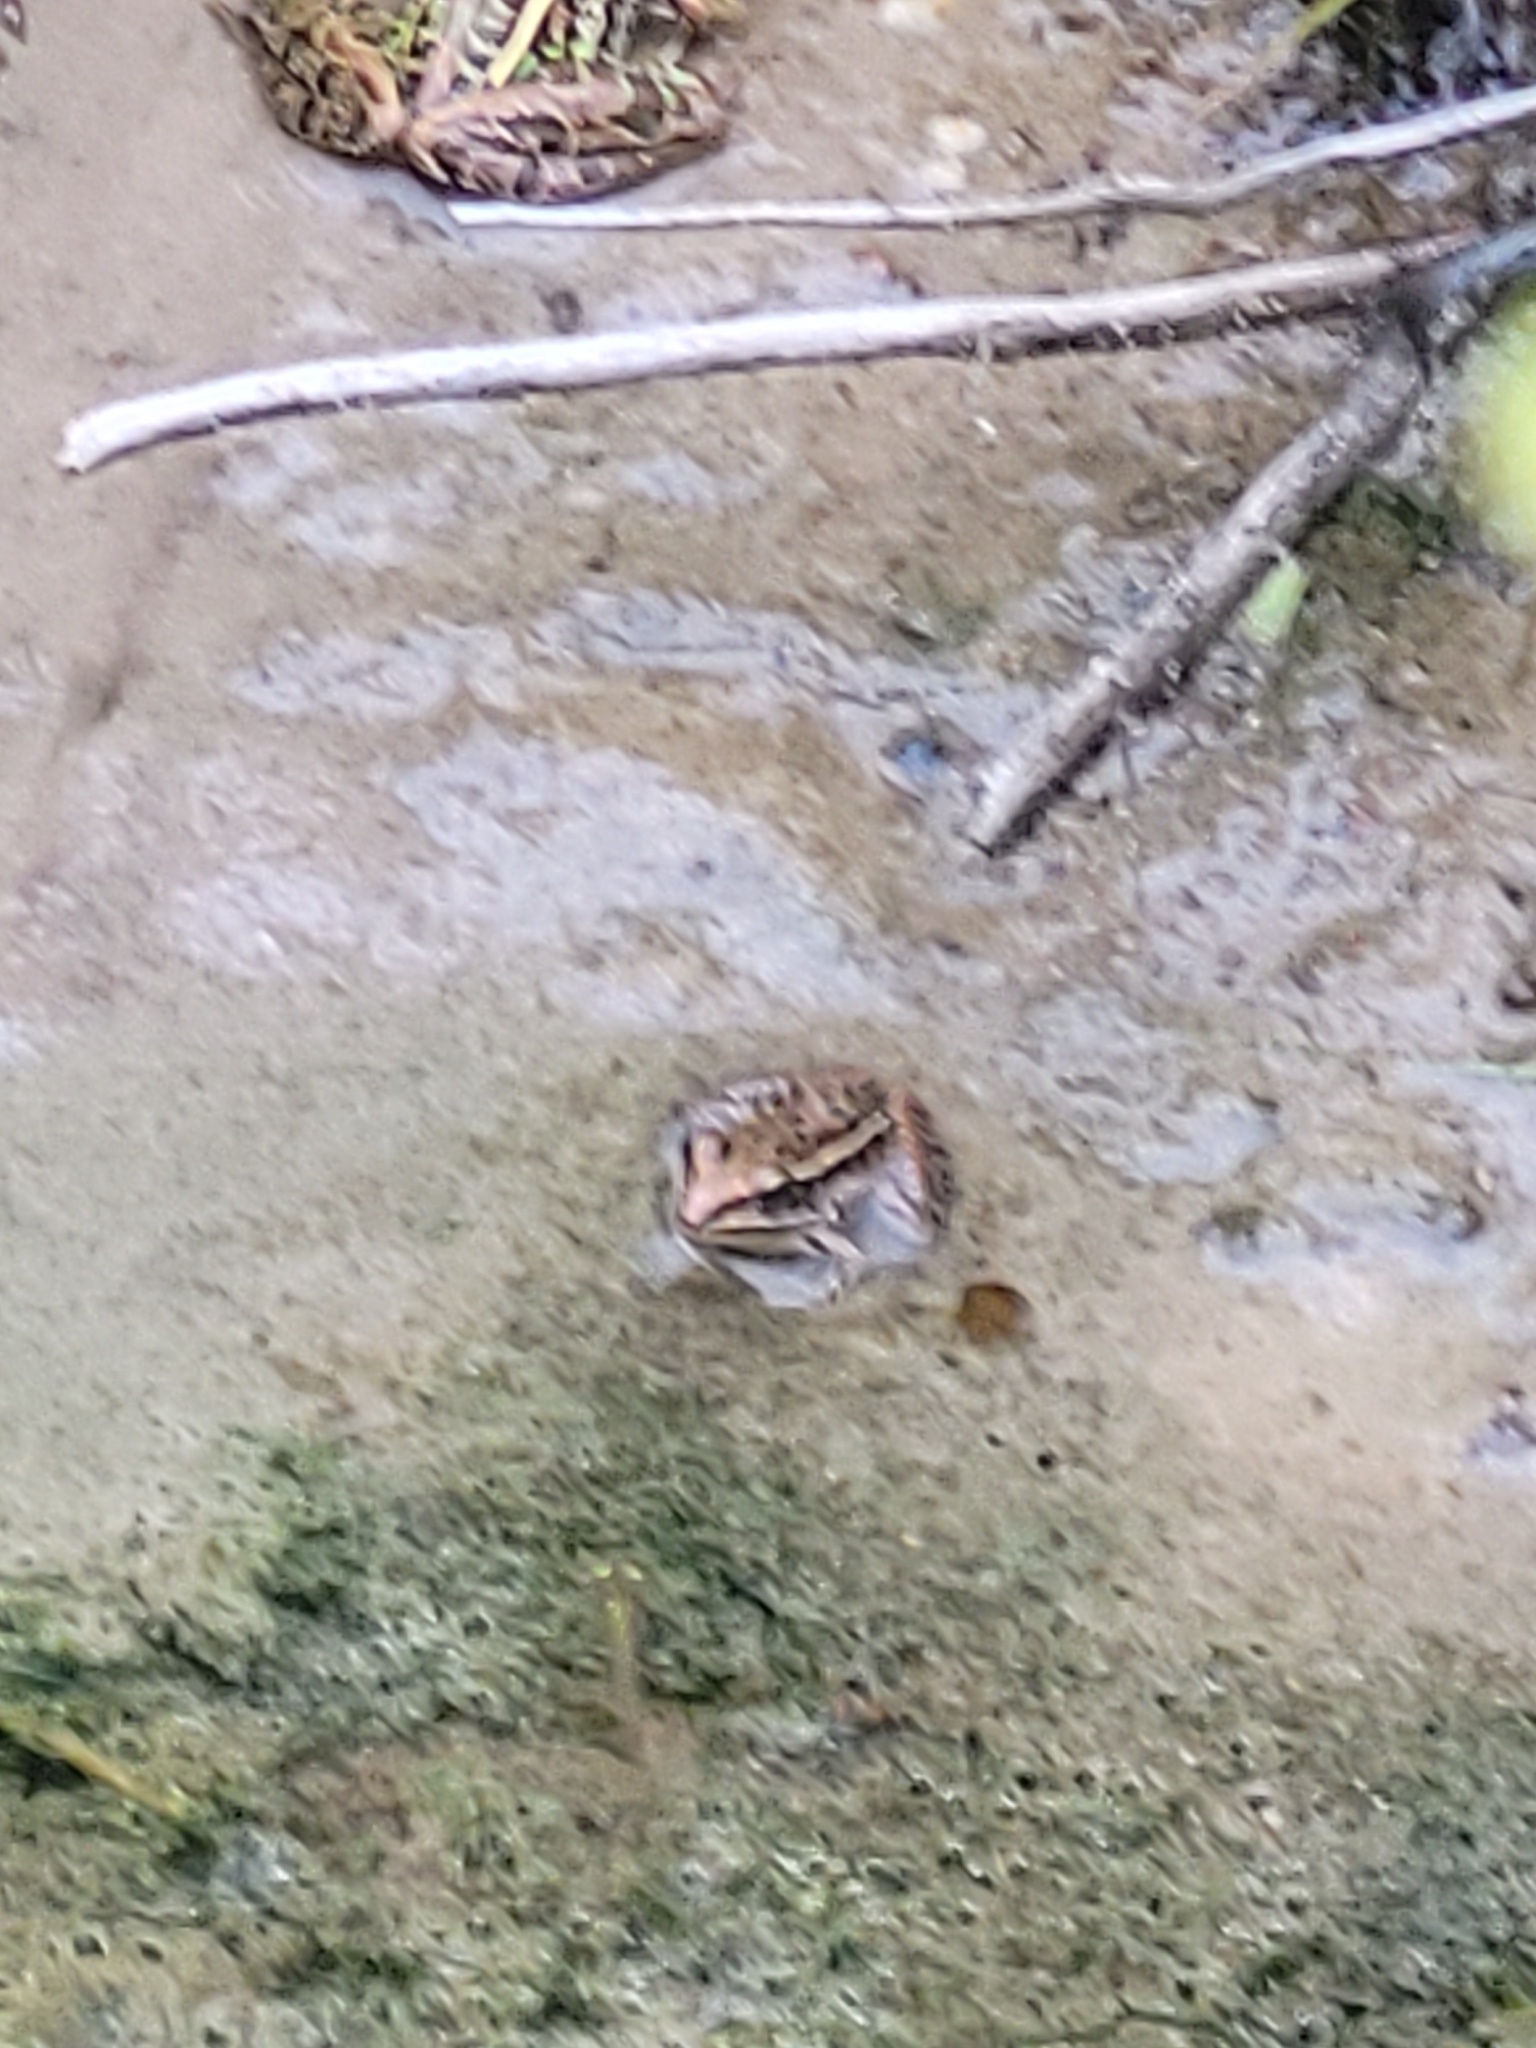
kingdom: Animalia
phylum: Chordata
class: Amphibia
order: Anura
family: Ranidae
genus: Lithobates
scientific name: Lithobates sphenocephalus
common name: Southern leopard frog
